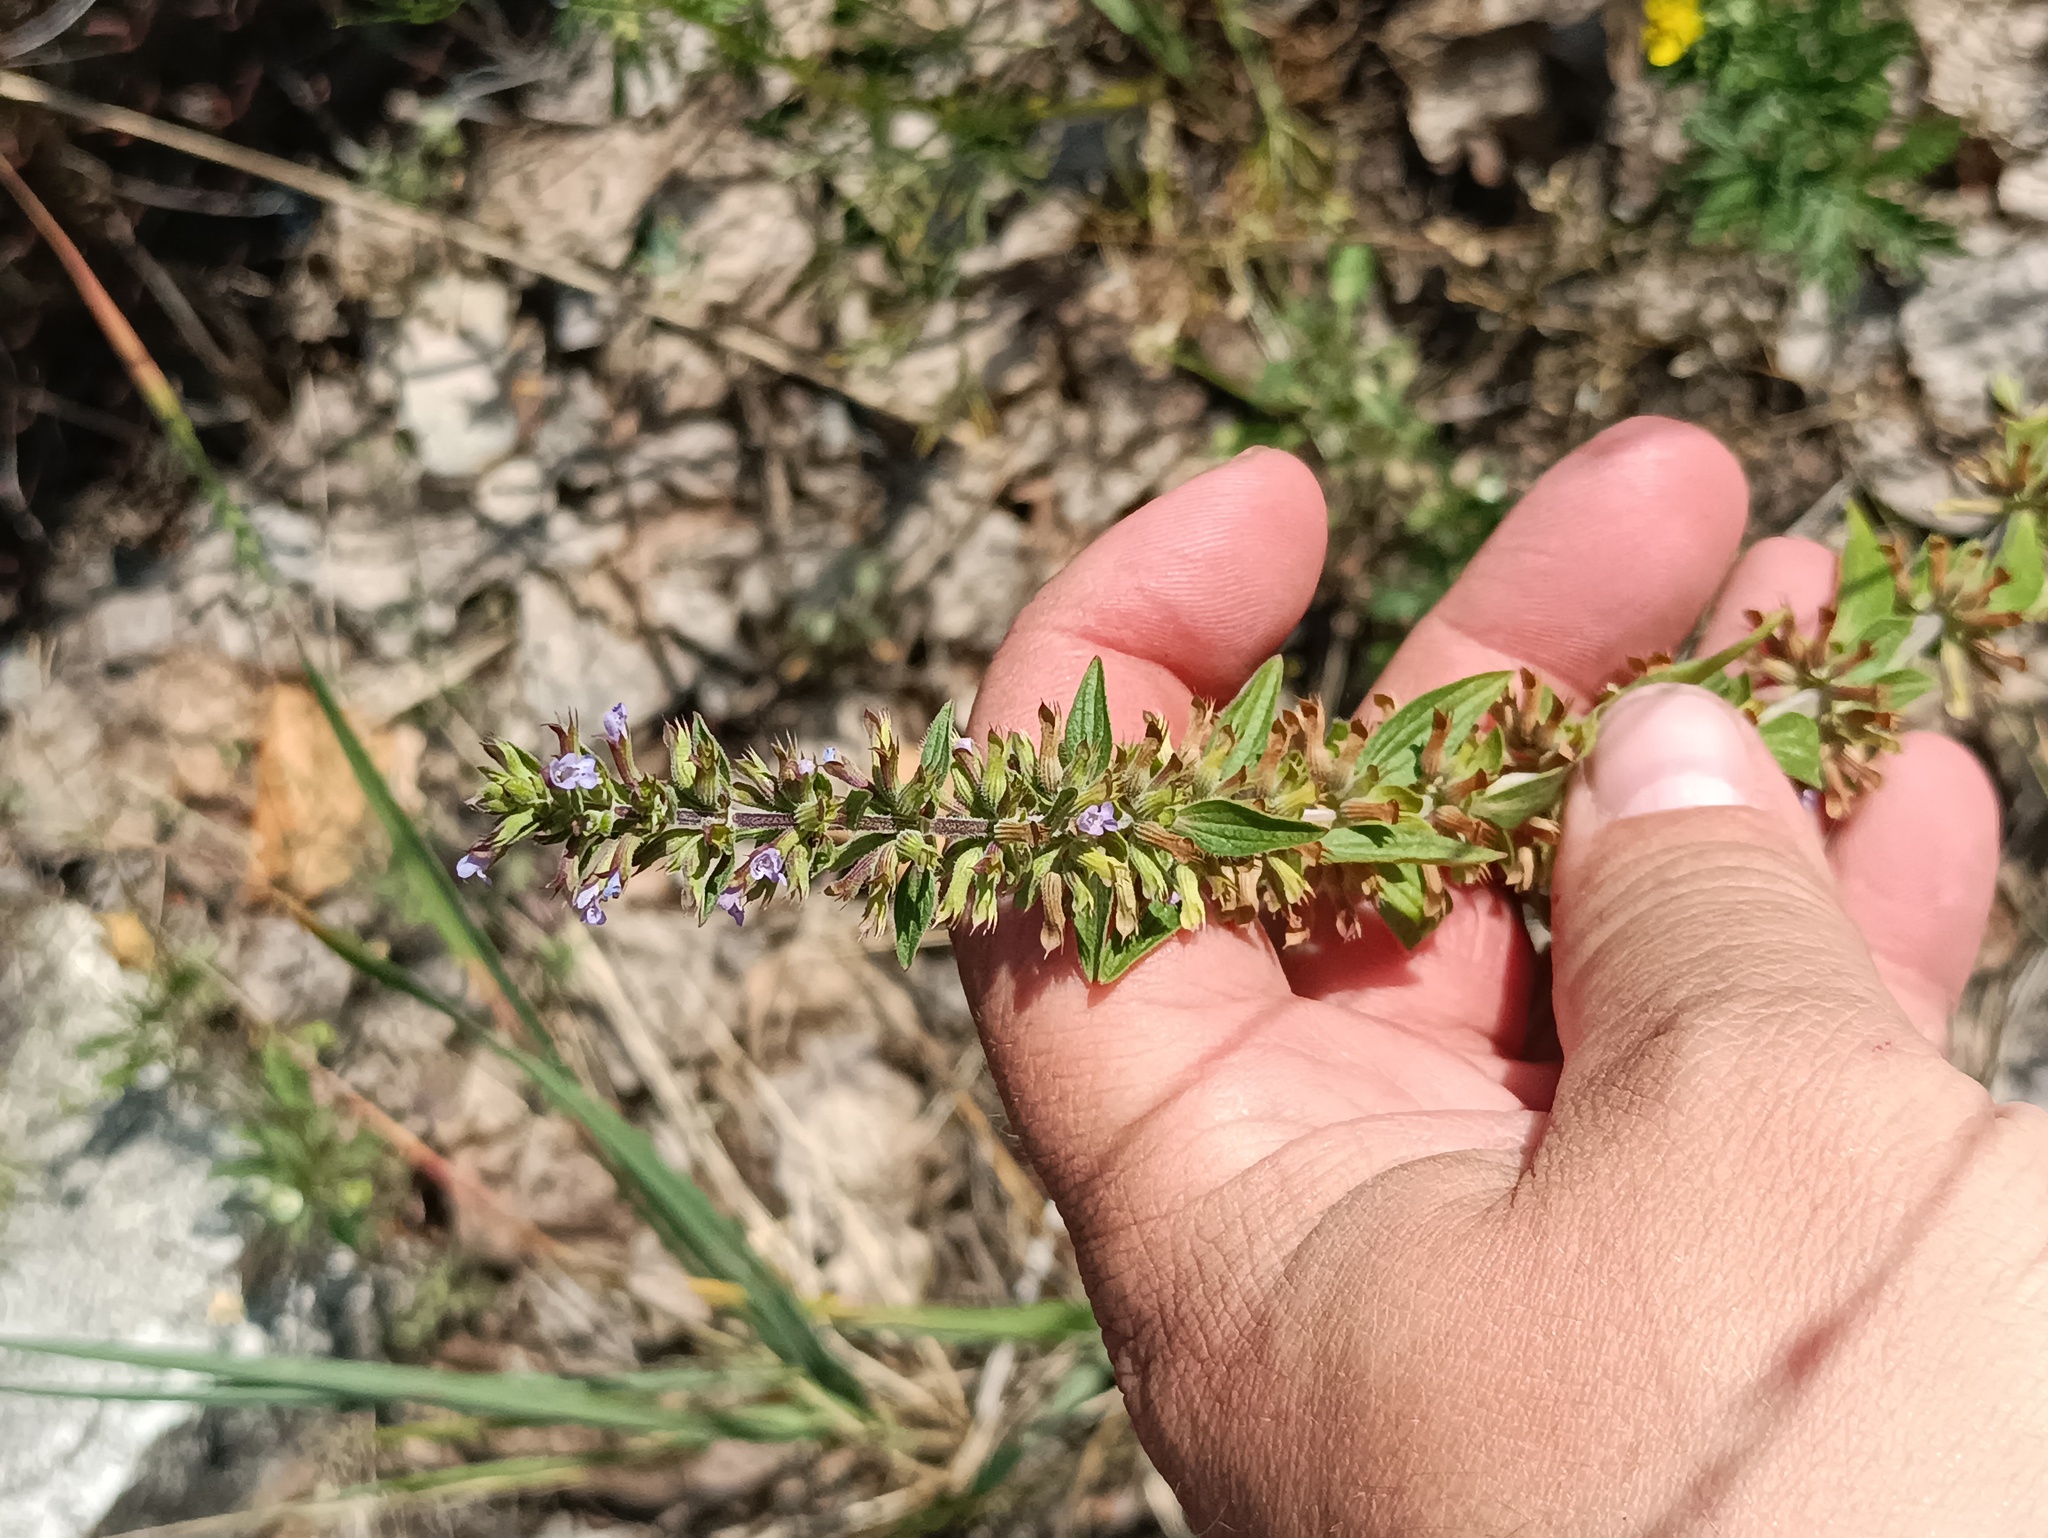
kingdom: Plantae
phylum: Tracheophyta
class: Magnoliopsida
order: Lamiales
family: Lamiaceae
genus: Dracocephalum
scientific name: Dracocephalum thymiflorum
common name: Thymeleaf dragonhead
